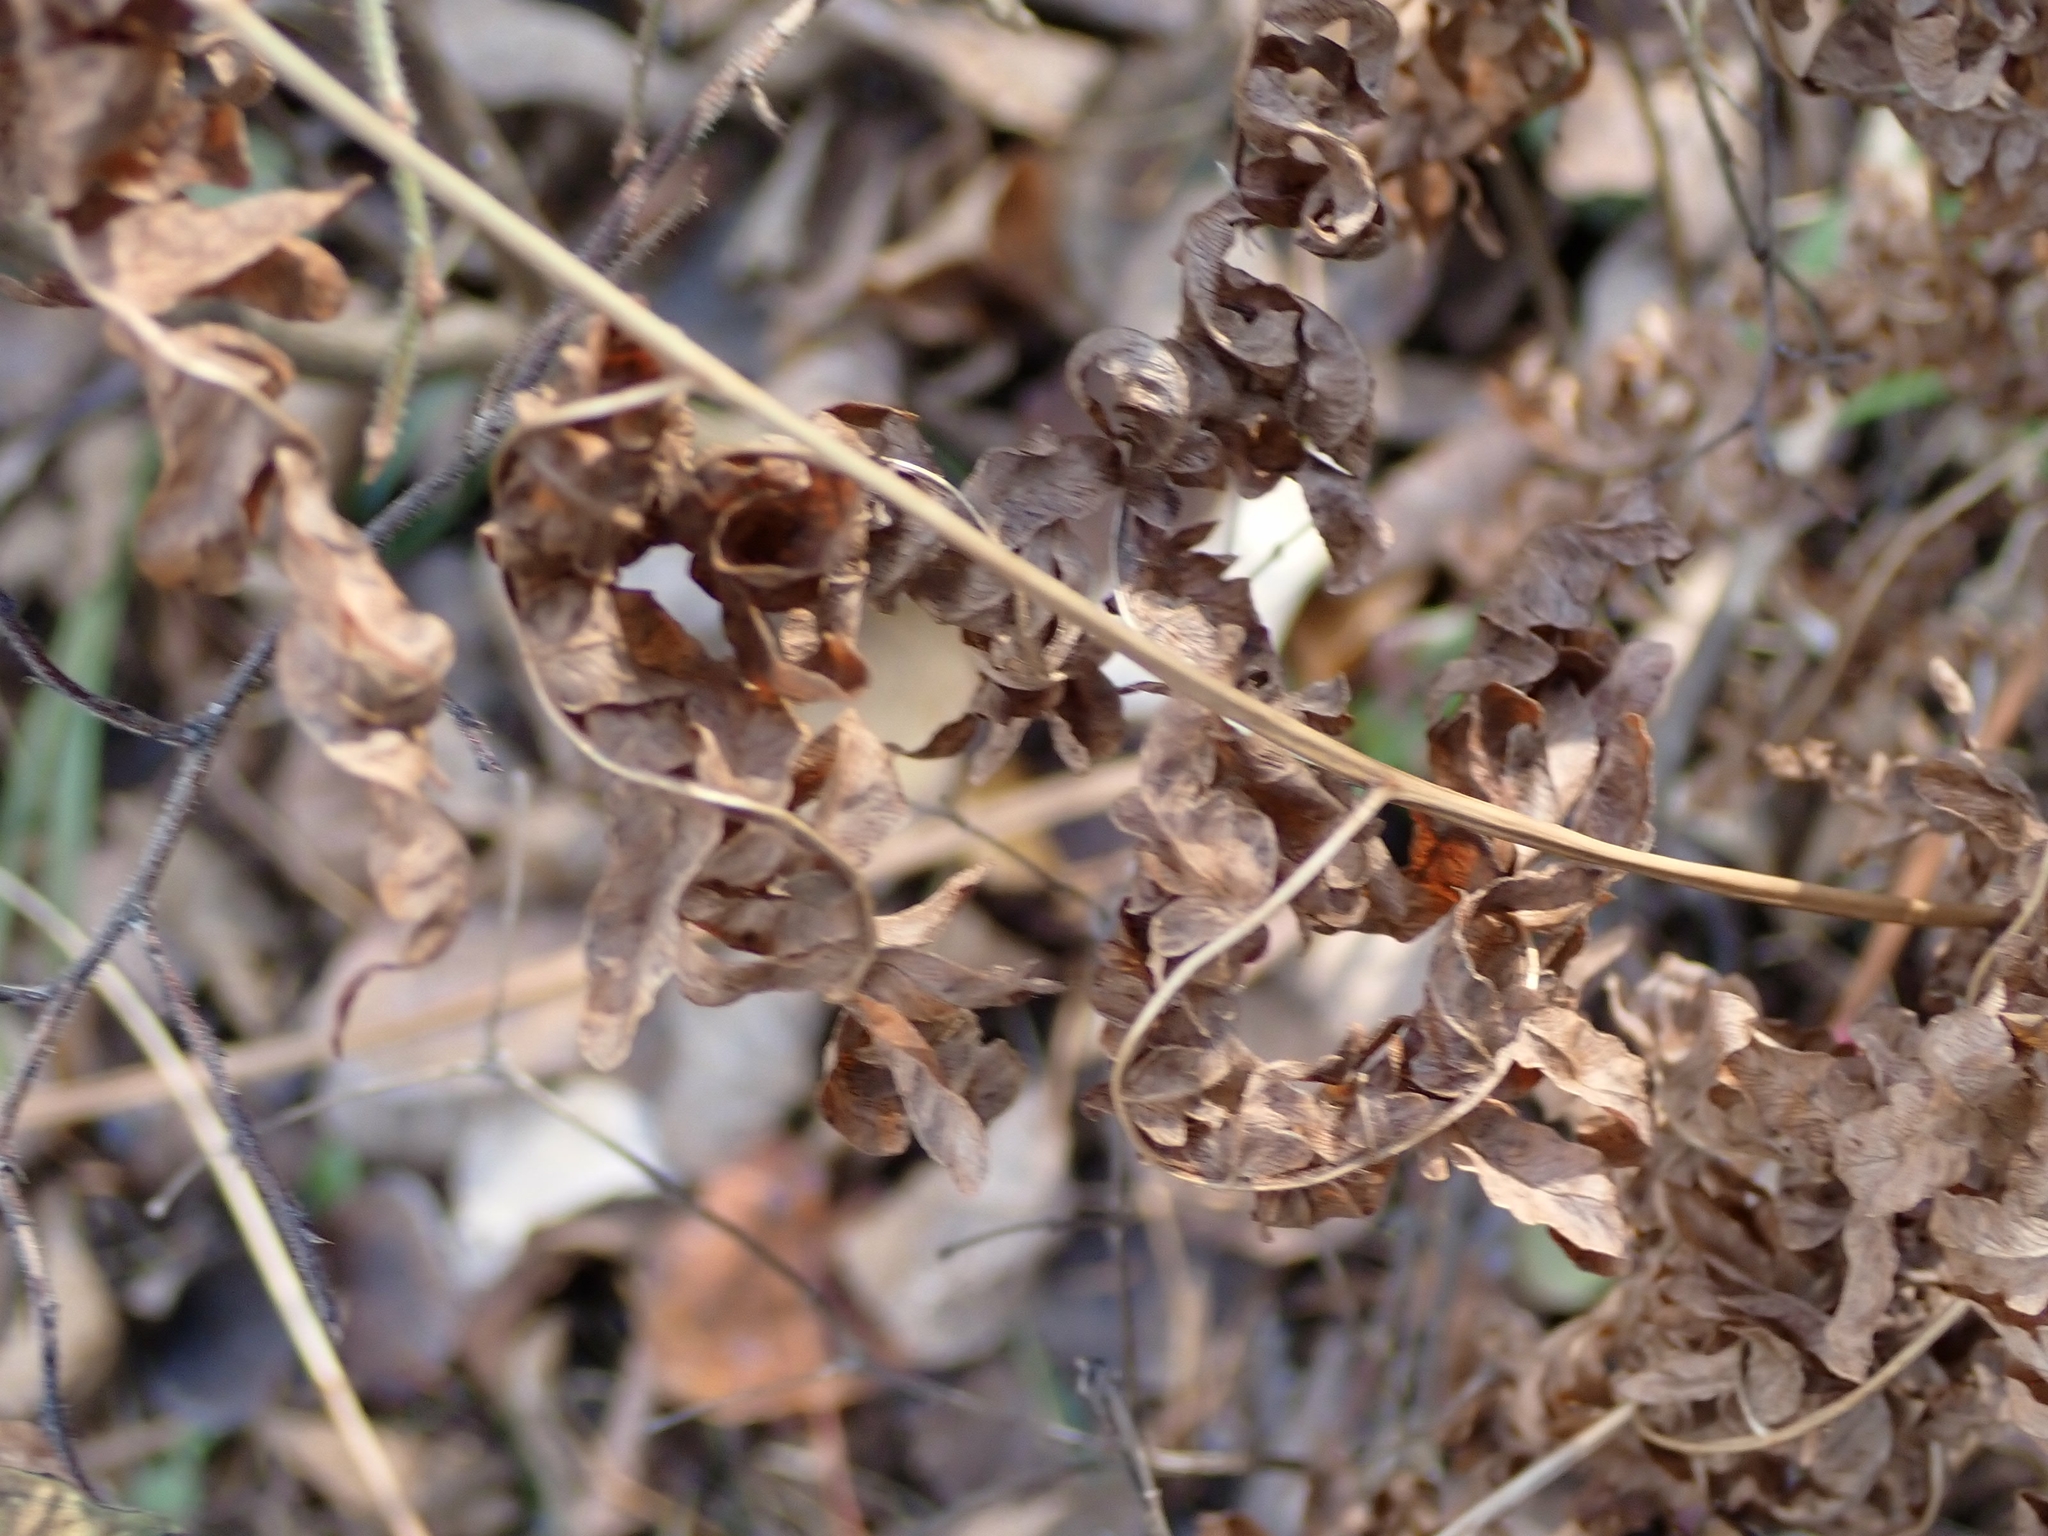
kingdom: Plantae
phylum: Tracheophyta
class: Polypodiopsida
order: Polypodiales
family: Dennstaedtiaceae
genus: Pteridium
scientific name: Pteridium aquilinum
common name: Bracken
